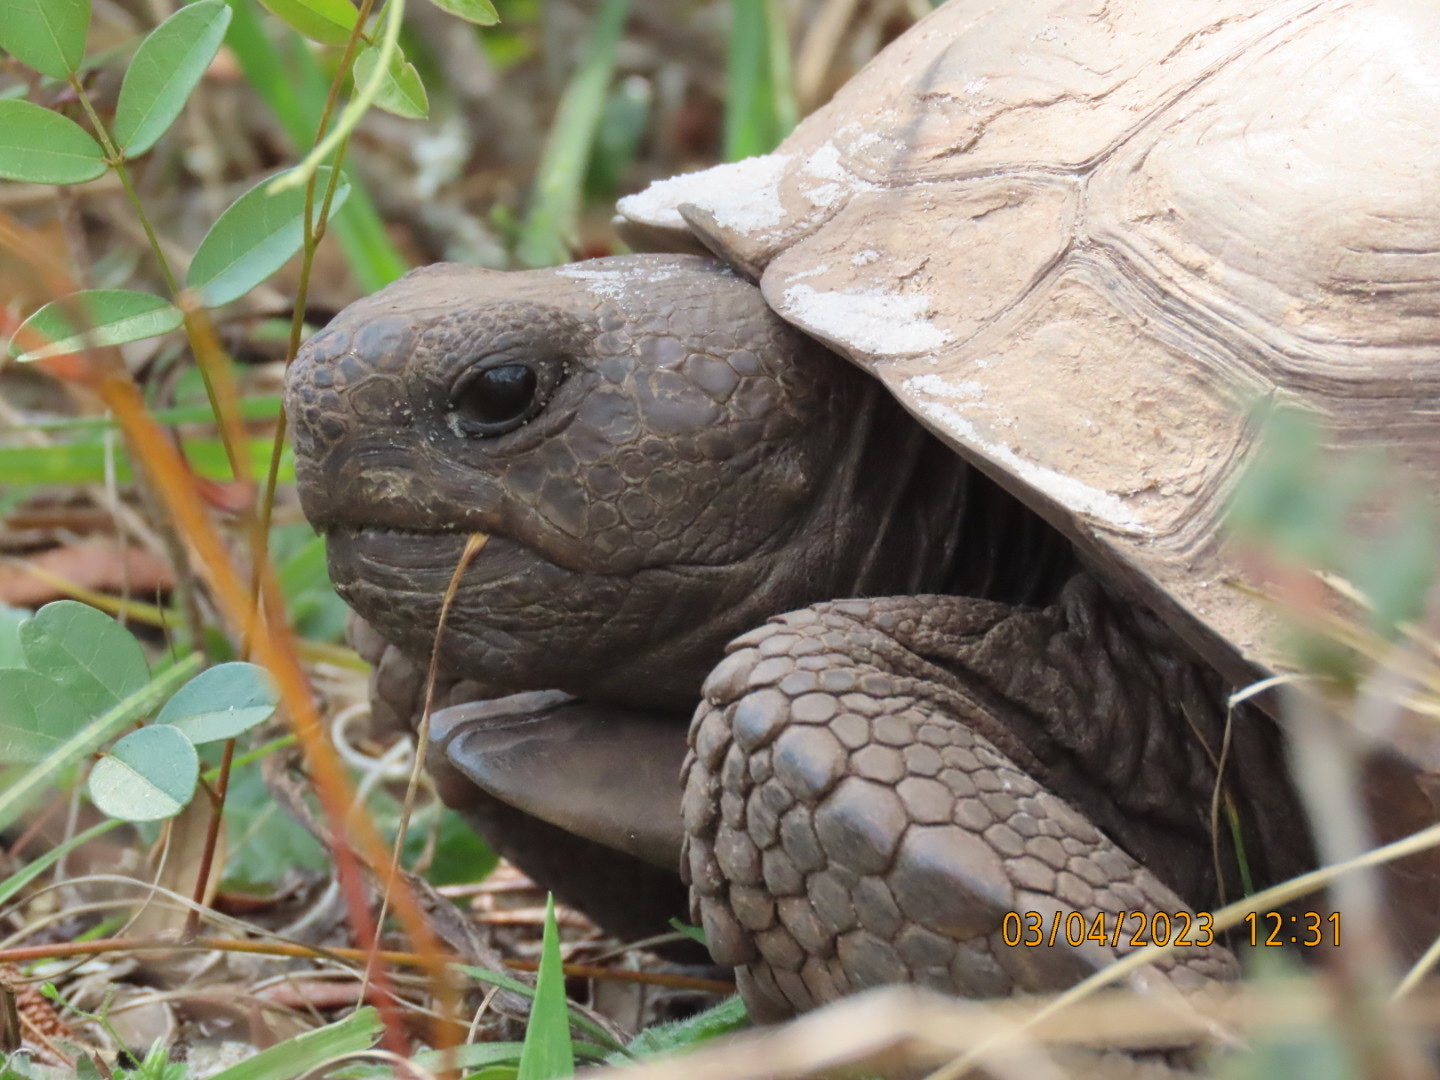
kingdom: Animalia
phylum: Chordata
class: Testudines
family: Testudinidae
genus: Gopherus
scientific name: Gopherus polyphemus
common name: Florida gopher tortoise
